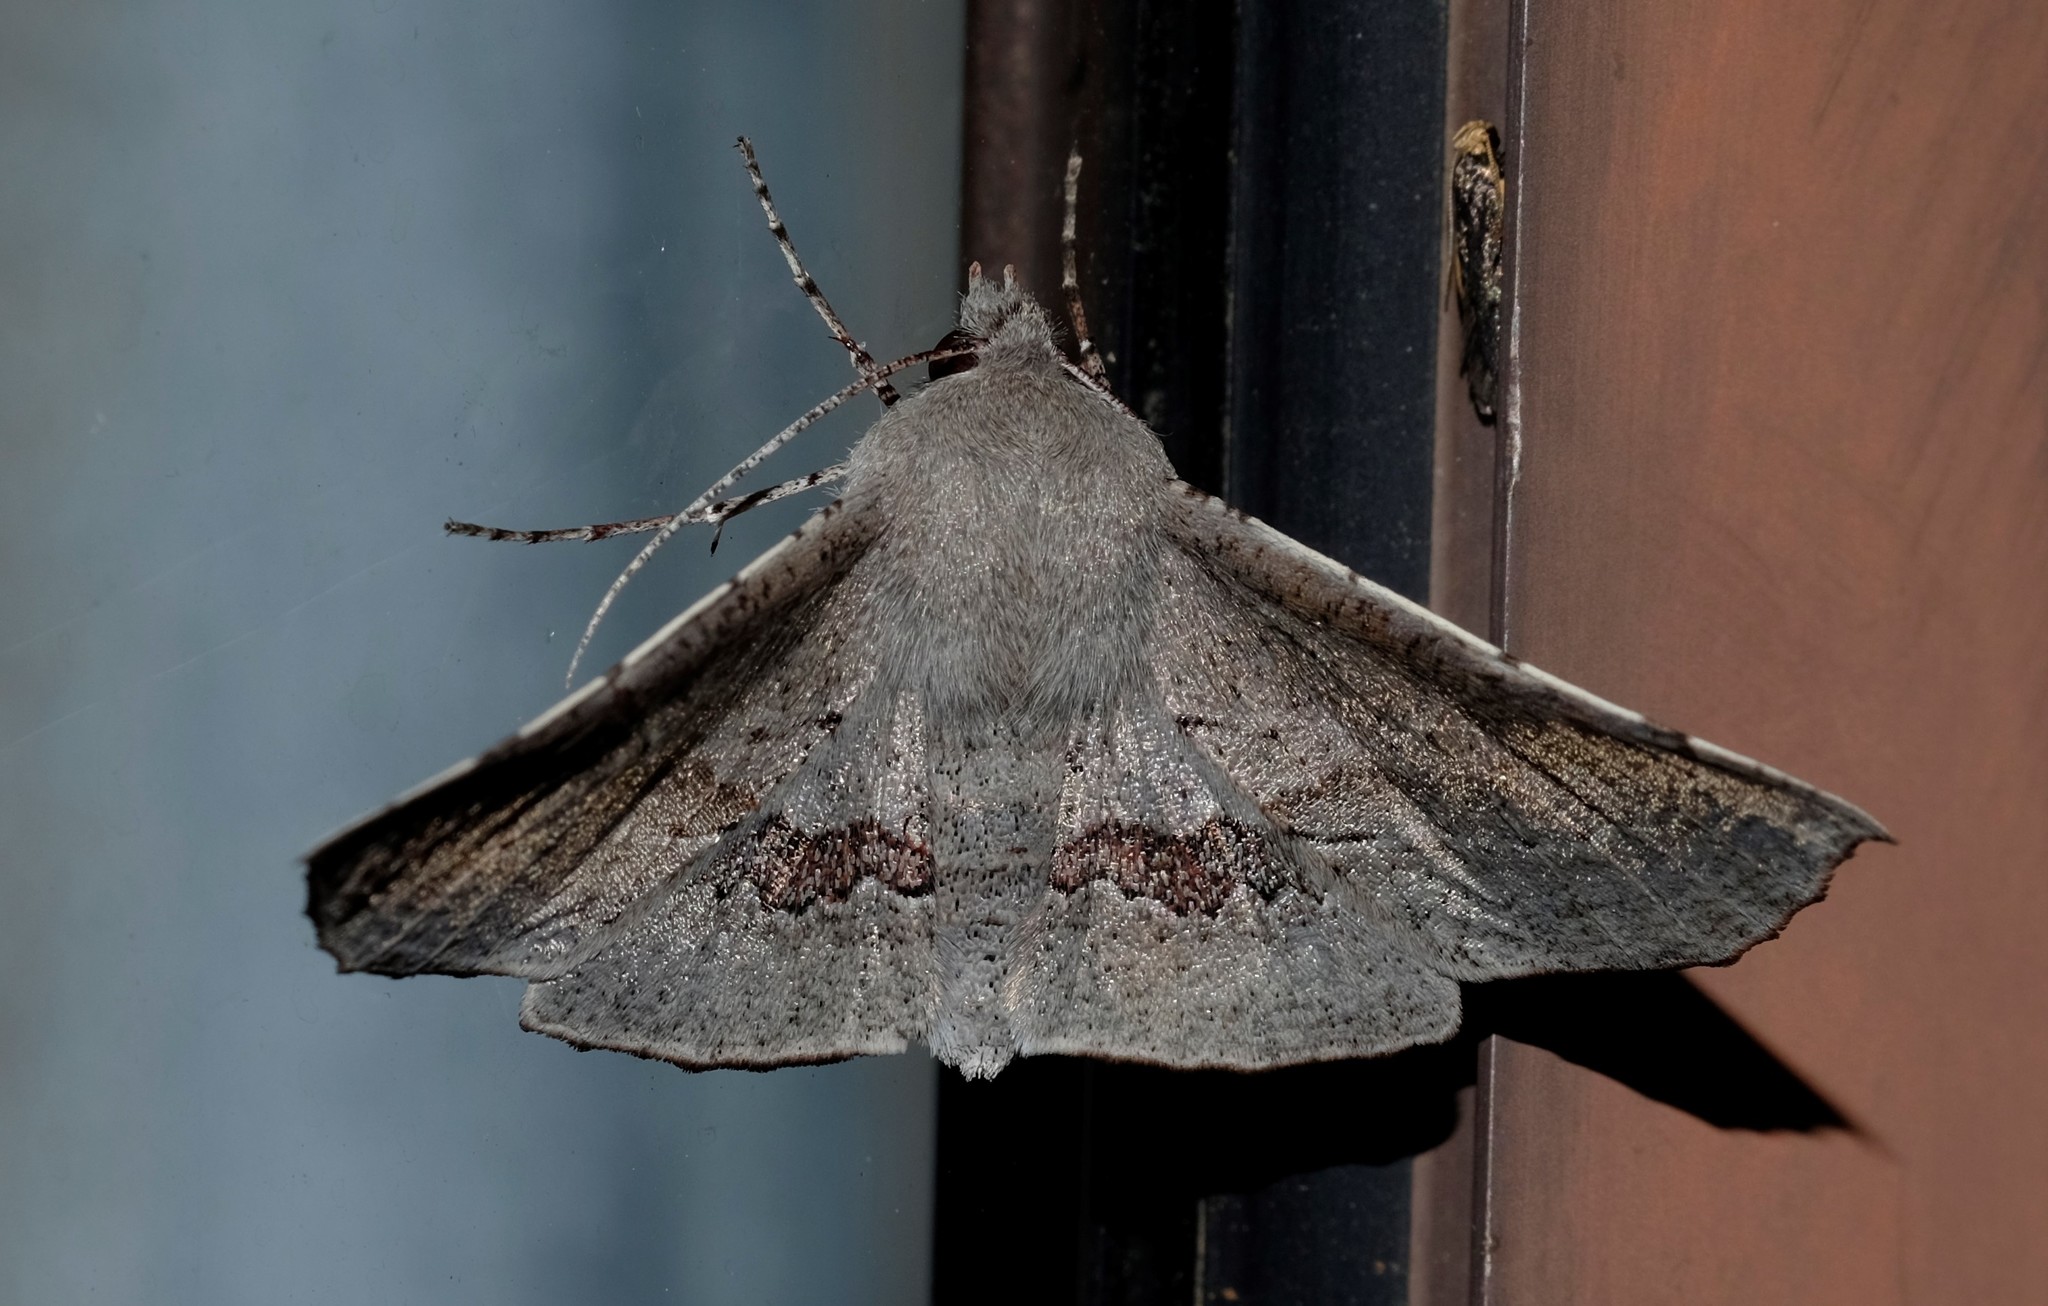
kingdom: Animalia
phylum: Arthropoda
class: Insecta
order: Lepidoptera
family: Geometridae
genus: Oenochroma
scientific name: Oenochroma
